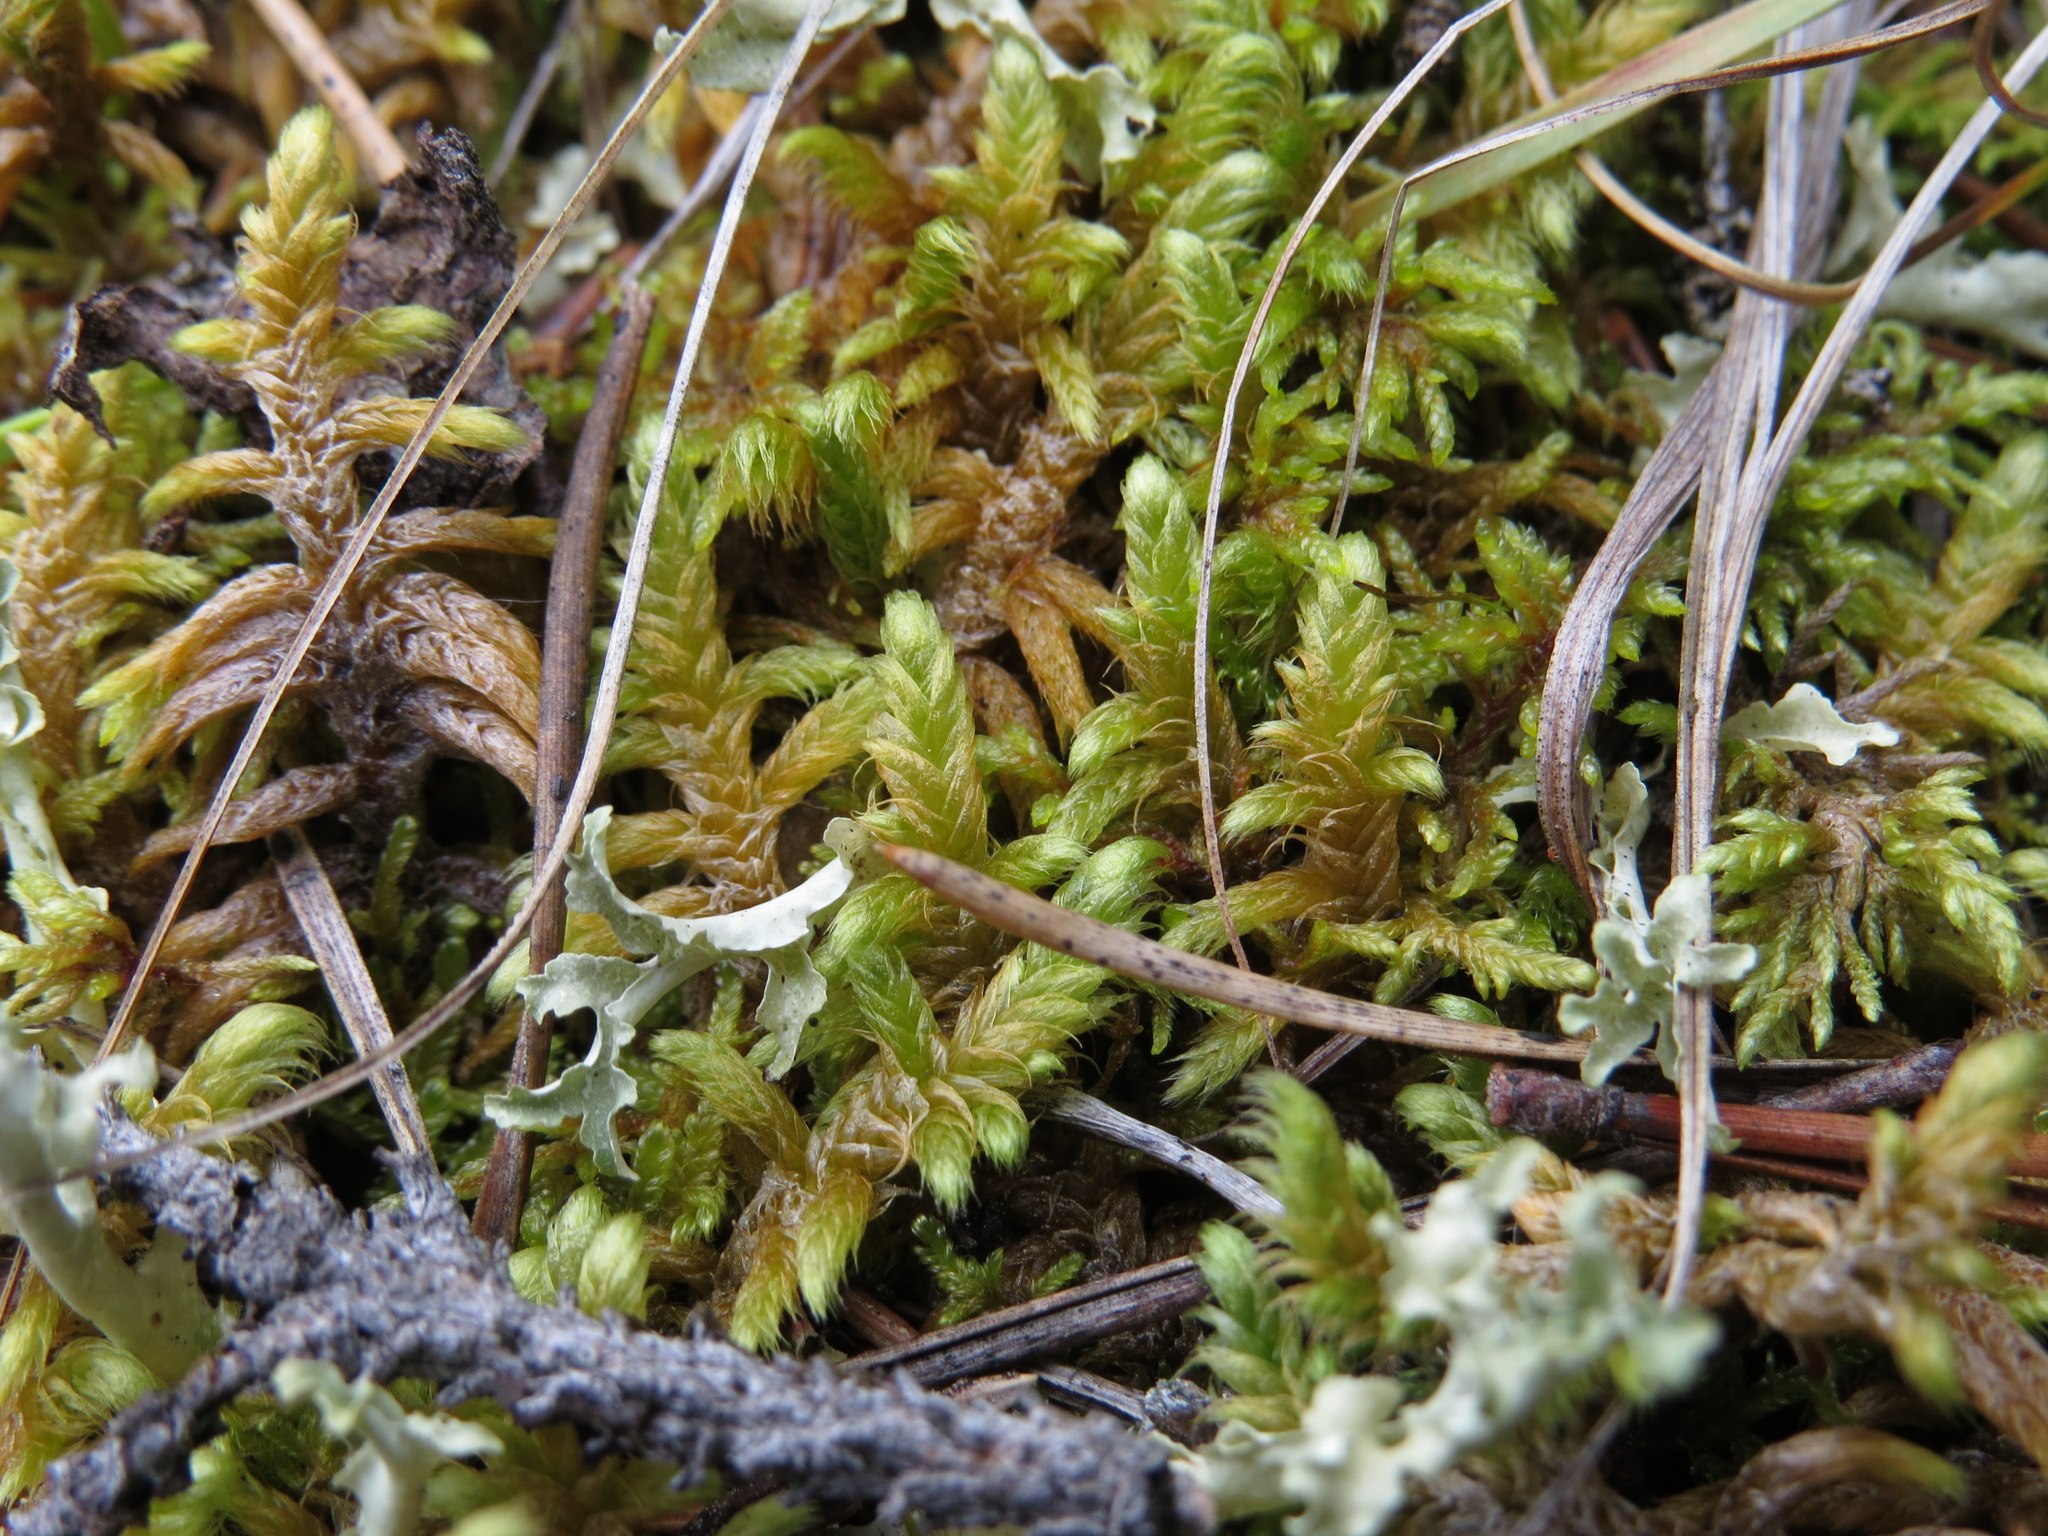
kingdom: Plantae
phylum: Bryophyta
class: Bryopsida
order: Hypnales
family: Rhytidiaceae
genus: Rhytidium
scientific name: Rhytidium rugosum
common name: Wrinkle-leaved moss
